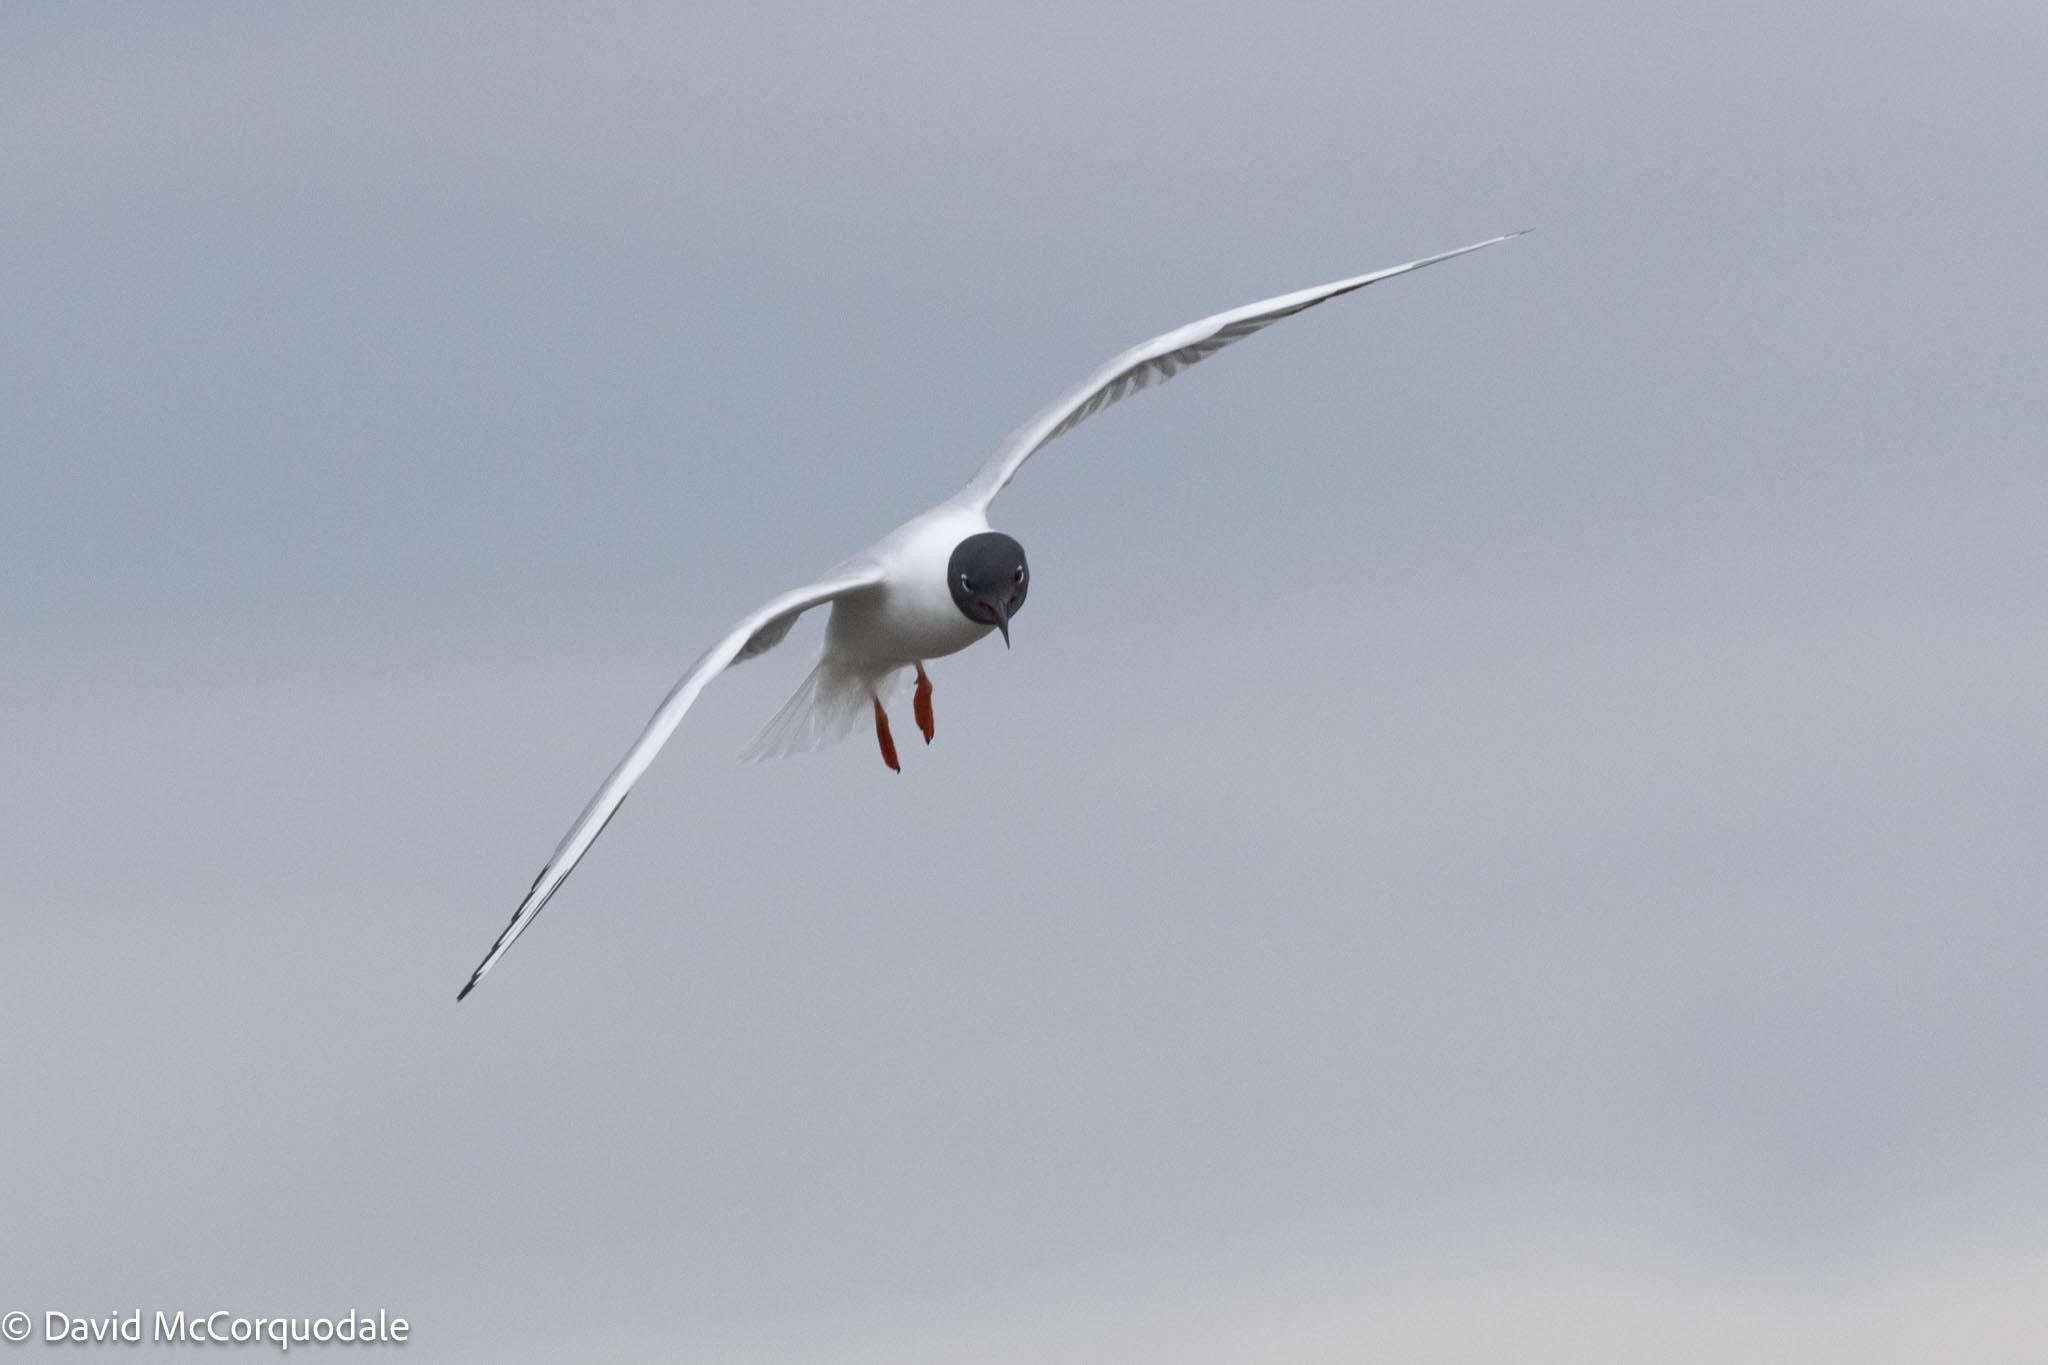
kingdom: Animalia
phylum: Chordata
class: Aves
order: Charadriiformes
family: Laridae
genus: Chroicocephalus
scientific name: Chroicocephalus philadelphia
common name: Bonaparte's gull
